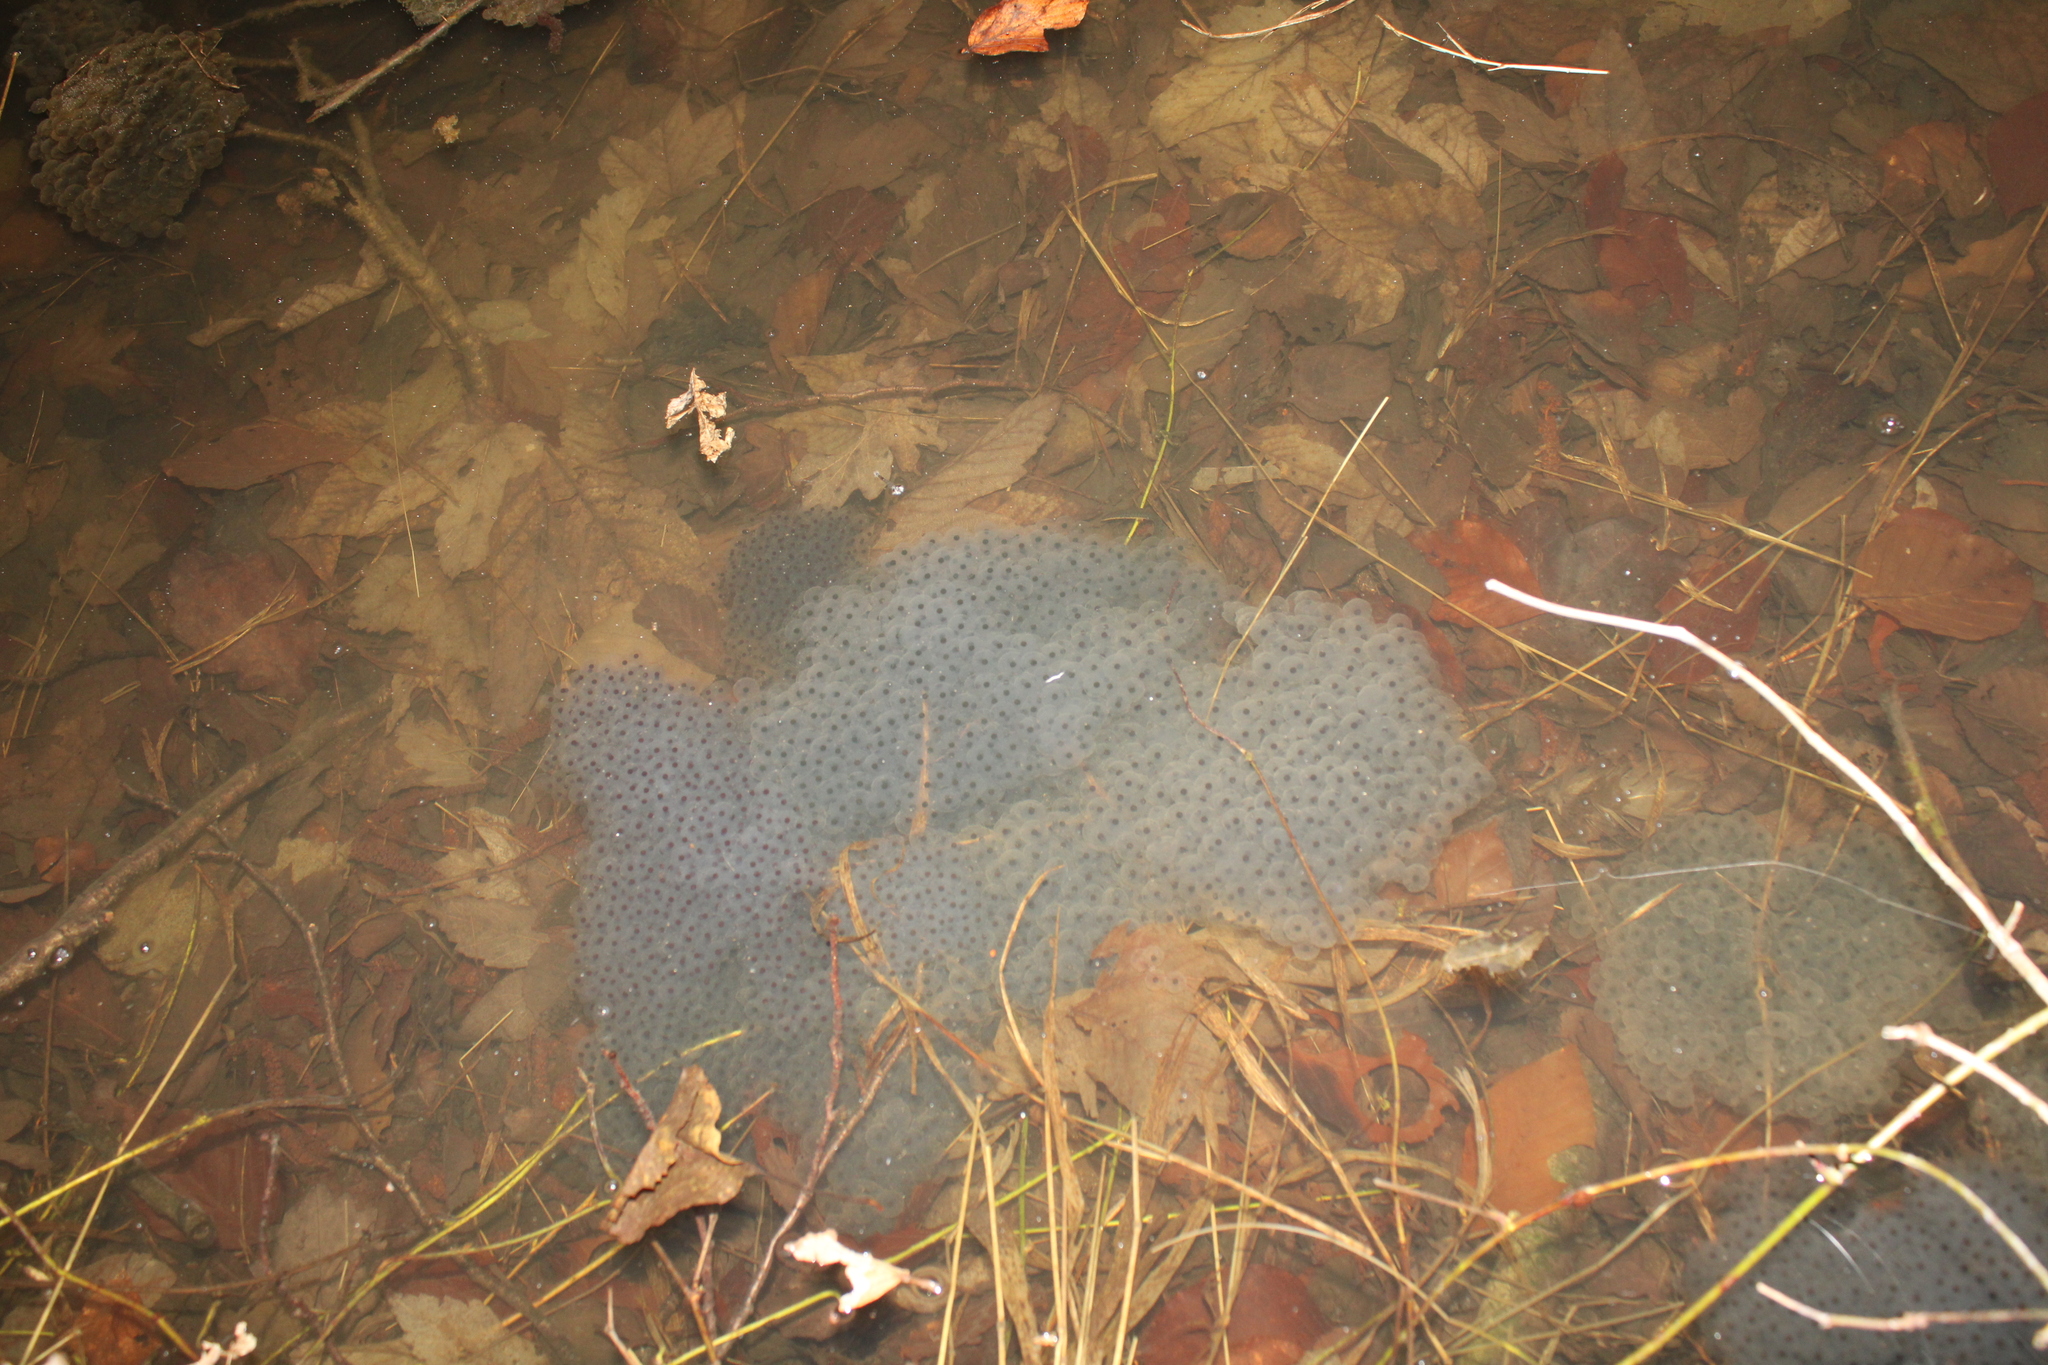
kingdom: Animalia
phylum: Chordata
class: Amphibia
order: Anura
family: Ranidae
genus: Rana
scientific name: Rana temporaria
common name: Common frog
